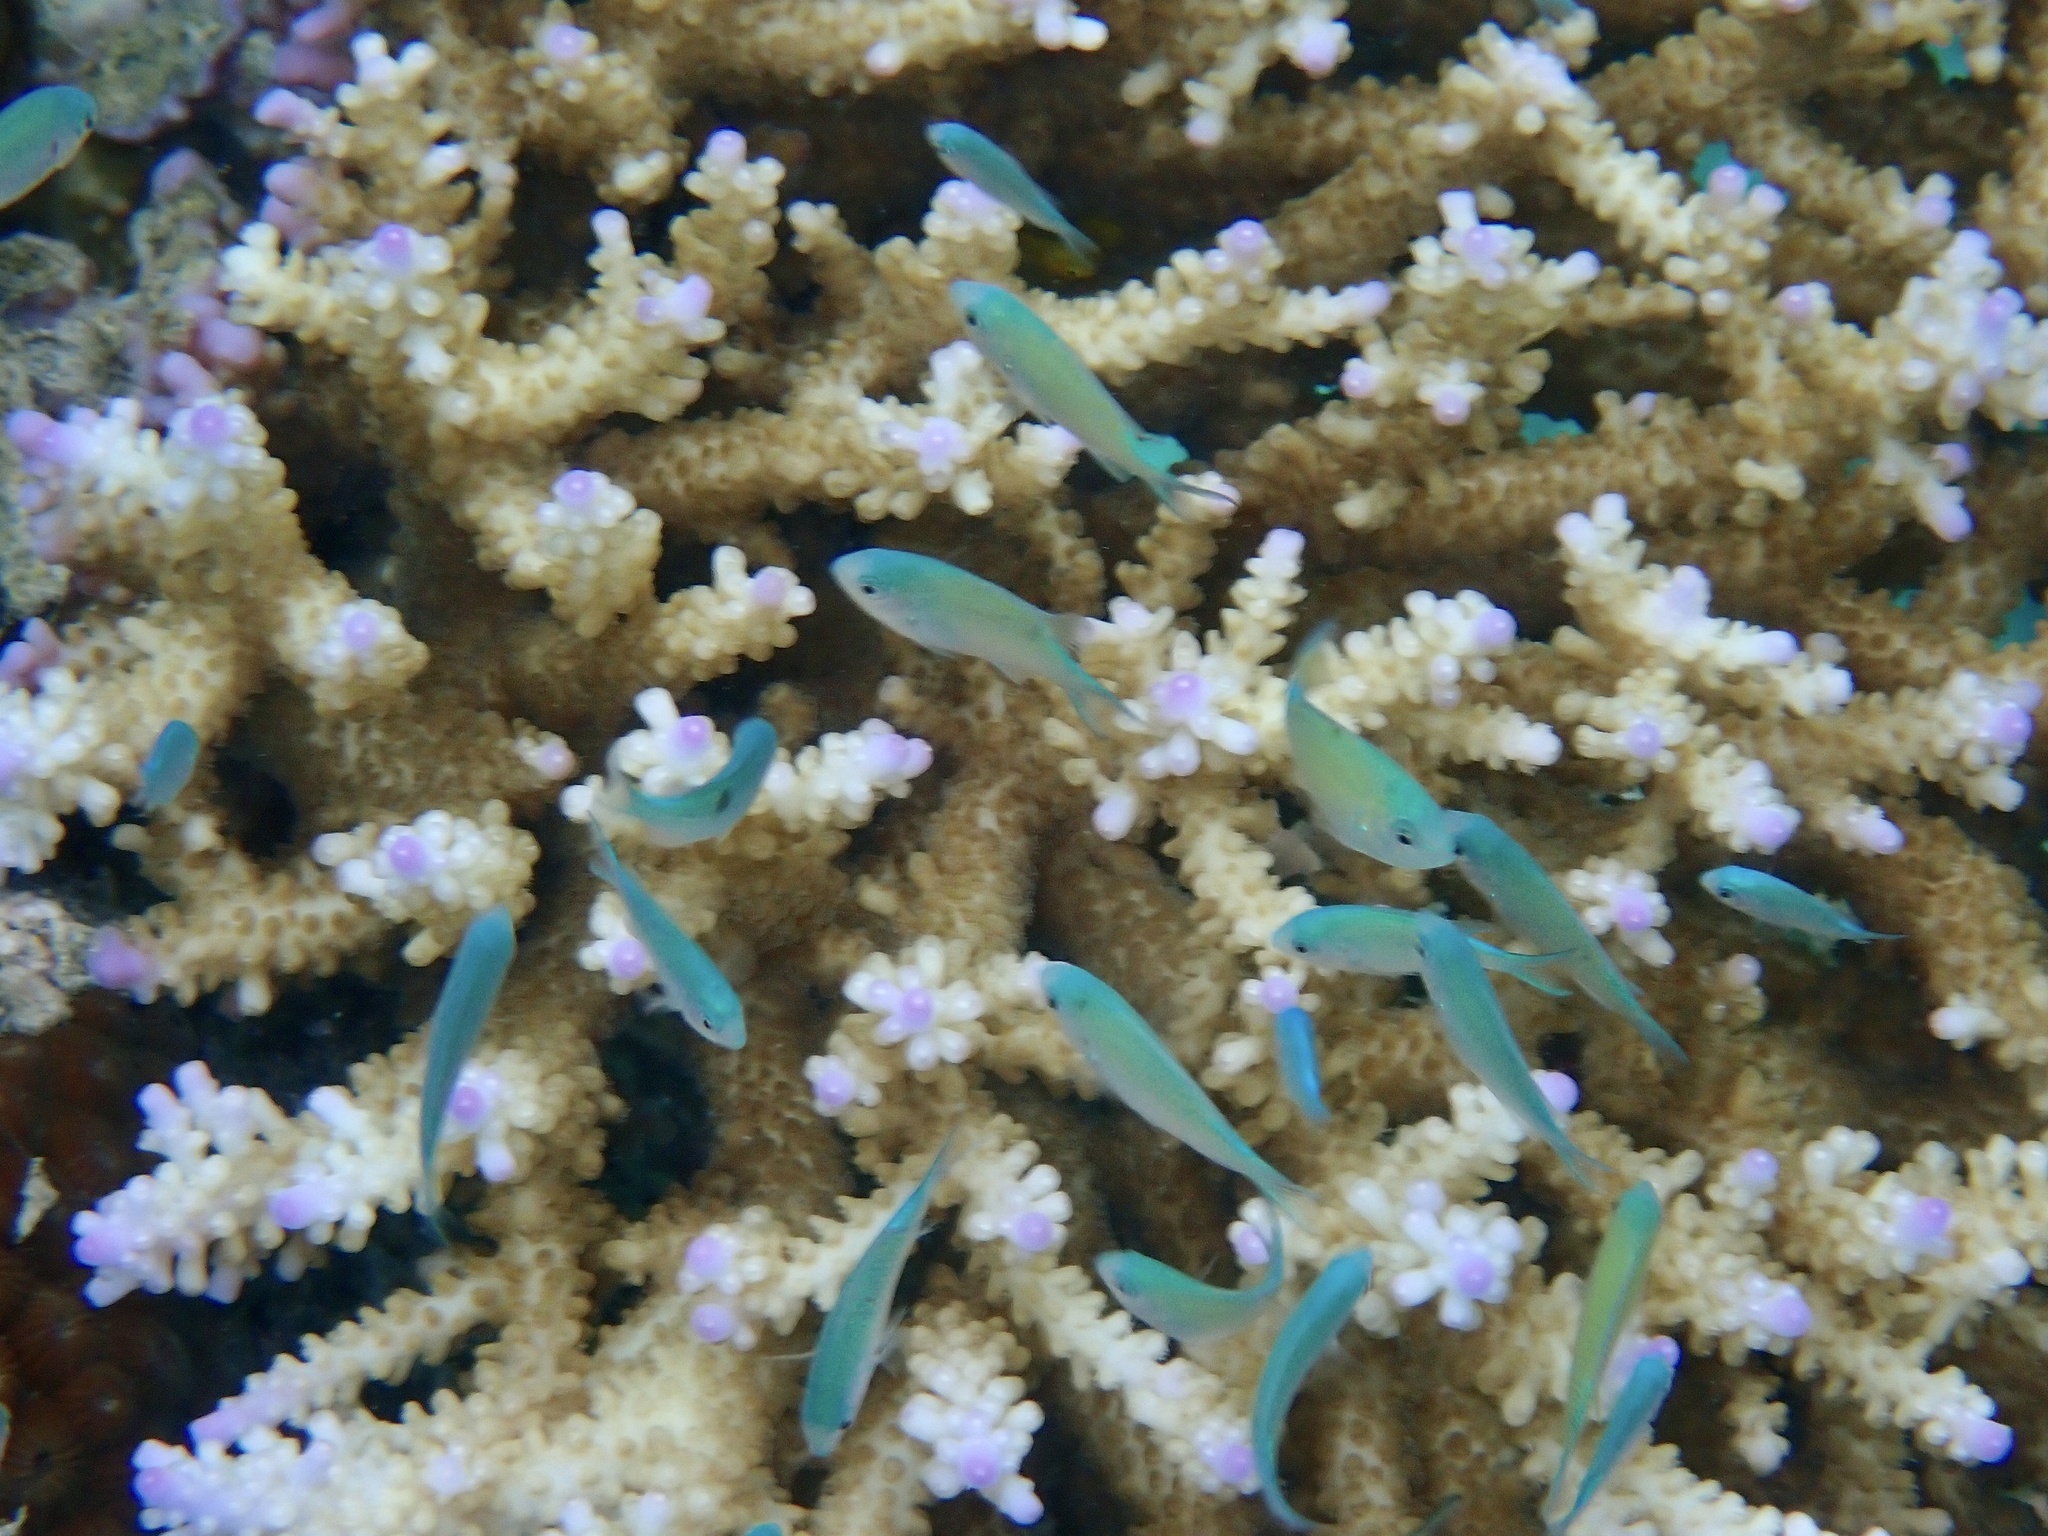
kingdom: Animalia
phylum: Chordata
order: Perciformes
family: Pomacentridae
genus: Chromis
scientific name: Chromis viridis
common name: Blue-green chromis
